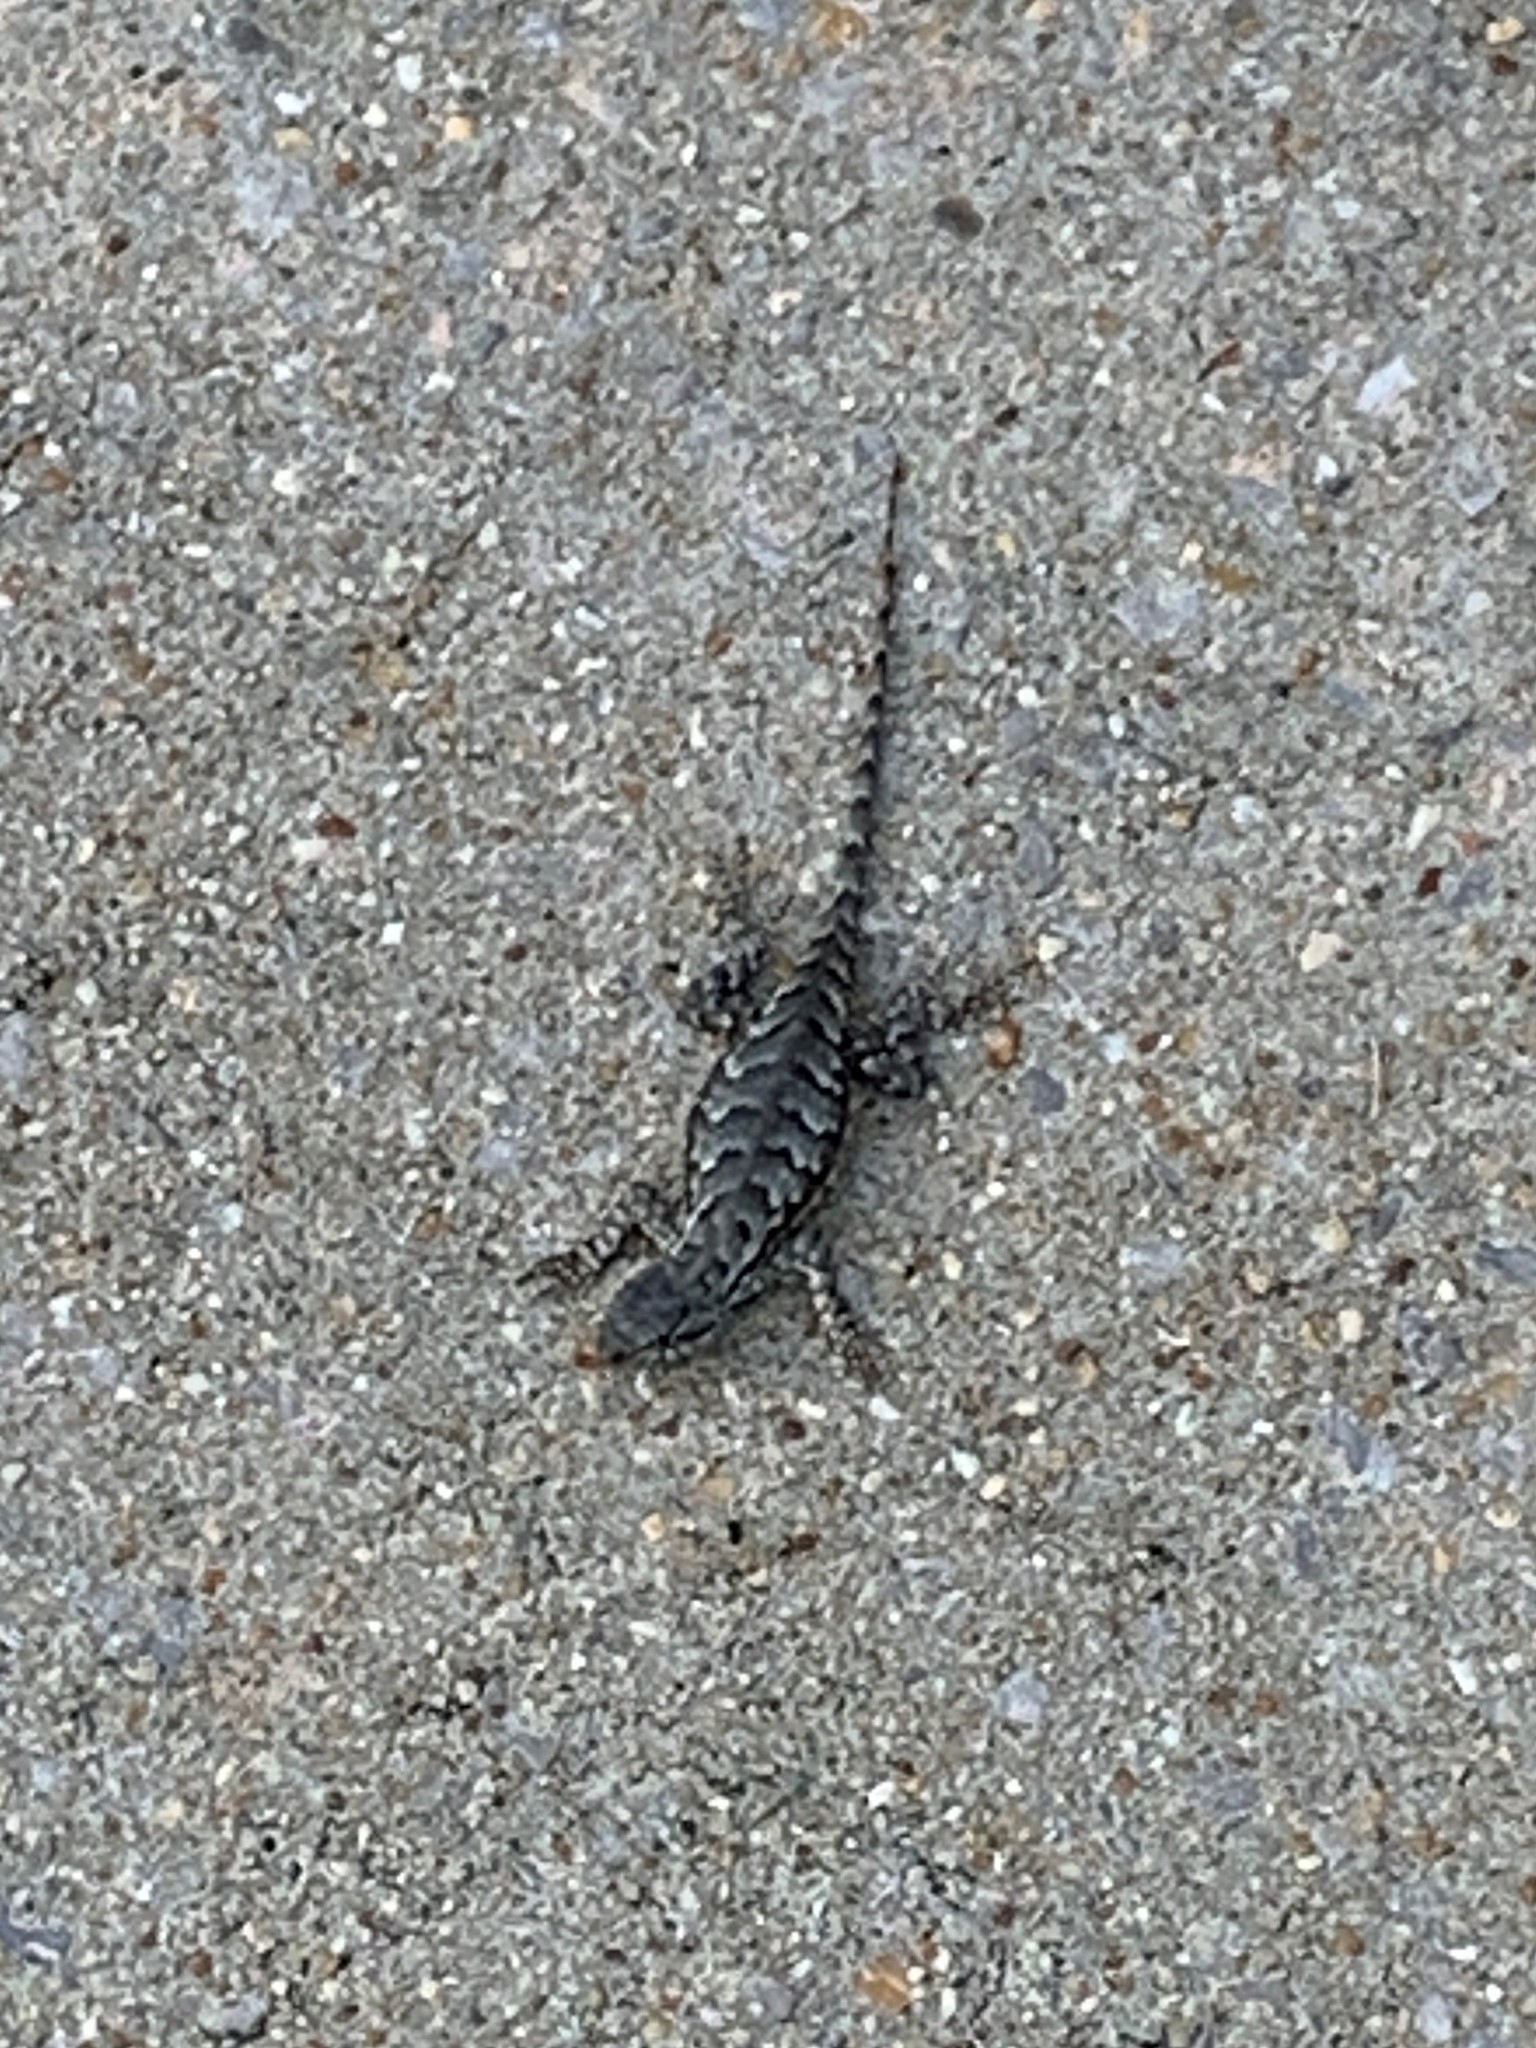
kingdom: Animalia
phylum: Chordata
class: Squamata
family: Phrynosomatidae
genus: Sceloporus
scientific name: Sceloporus undulatus
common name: Eastern fence lizard
